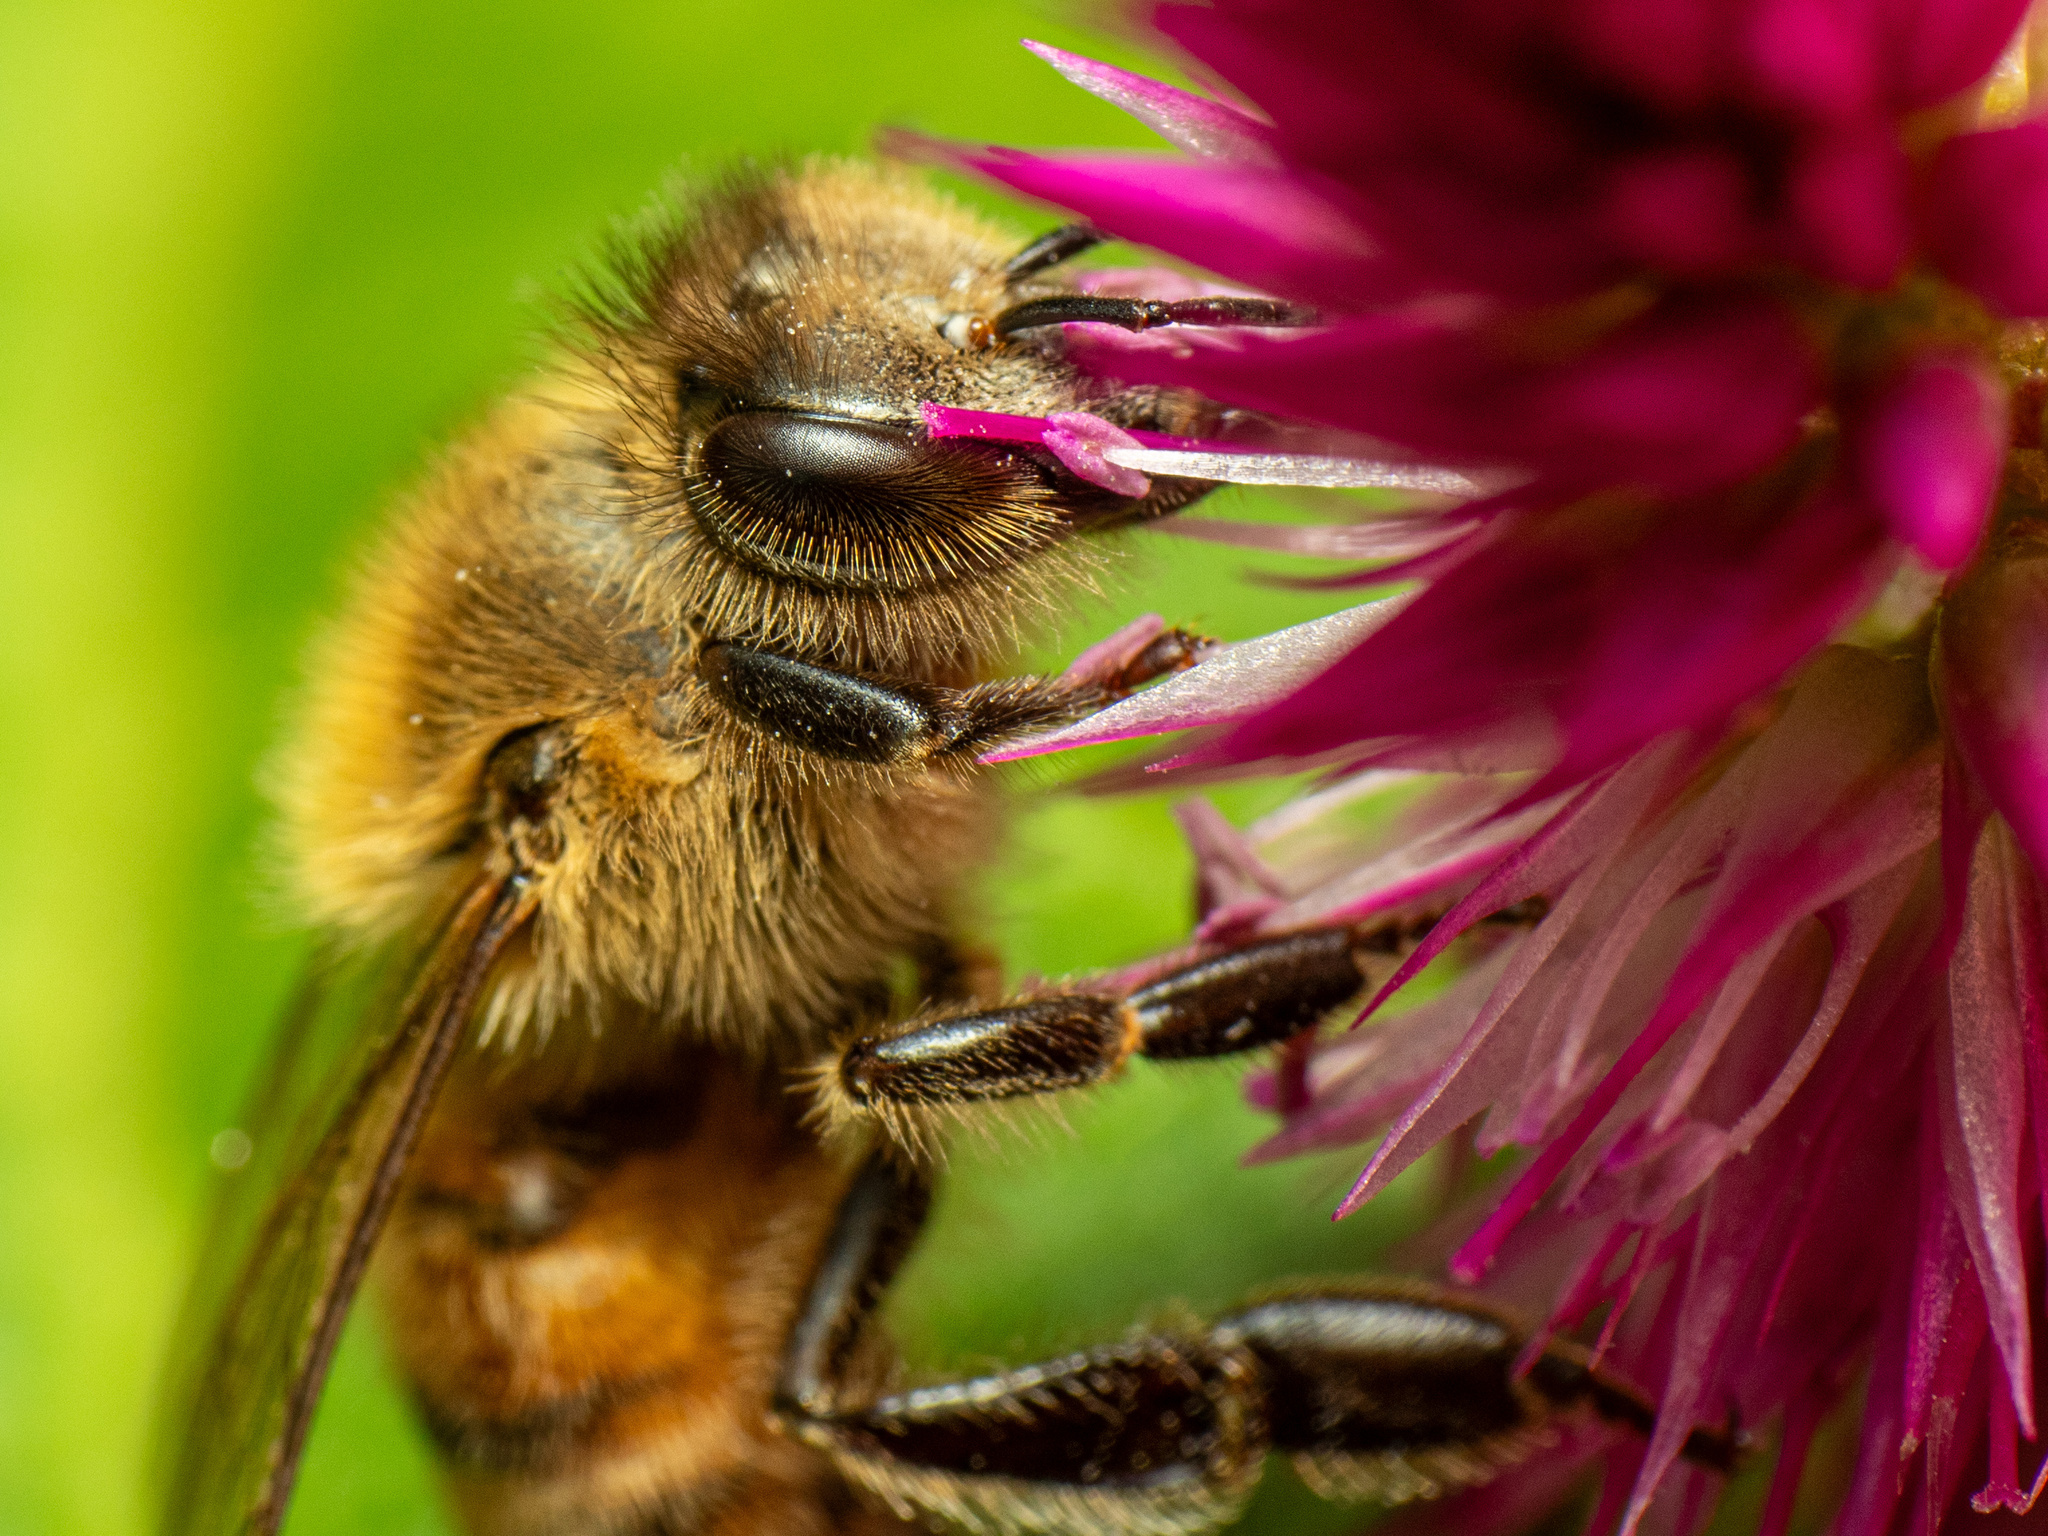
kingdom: Animalia
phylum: Arthropoda
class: Insecta
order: Hymenoptera
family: Apidae
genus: Apis
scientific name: Apis mellifera
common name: Honey bee
